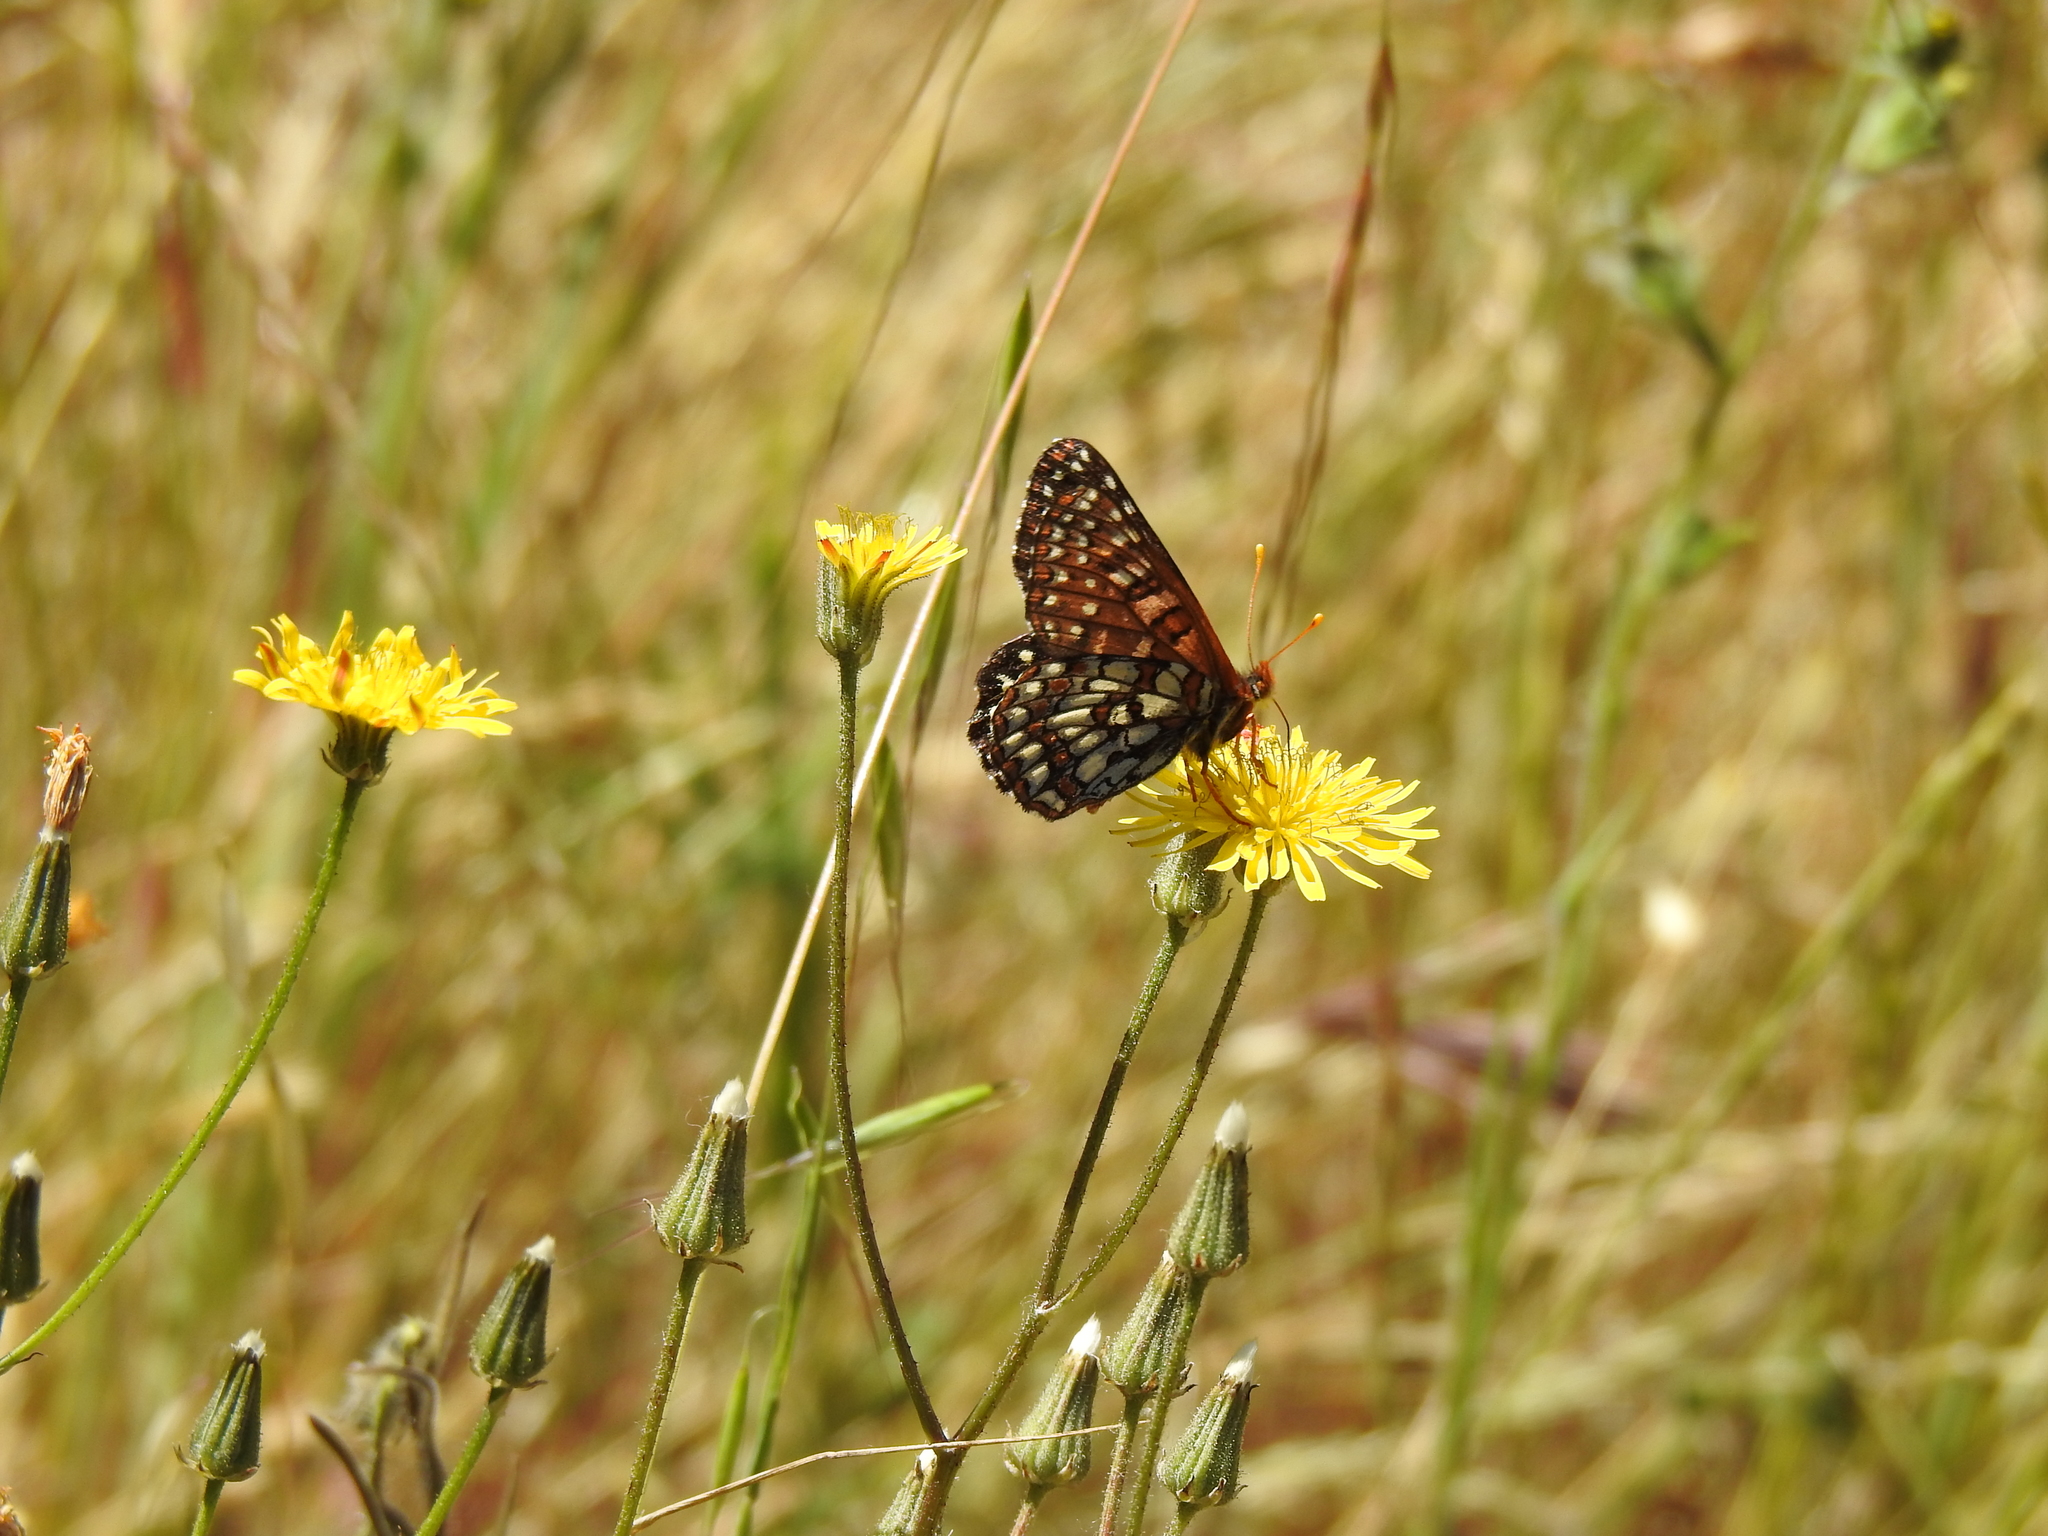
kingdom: Animalia
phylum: Arthropoda
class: Insecta
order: Lepidoptera
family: Nymphalidae
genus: Occidryas
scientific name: Occidryas chalcedona
